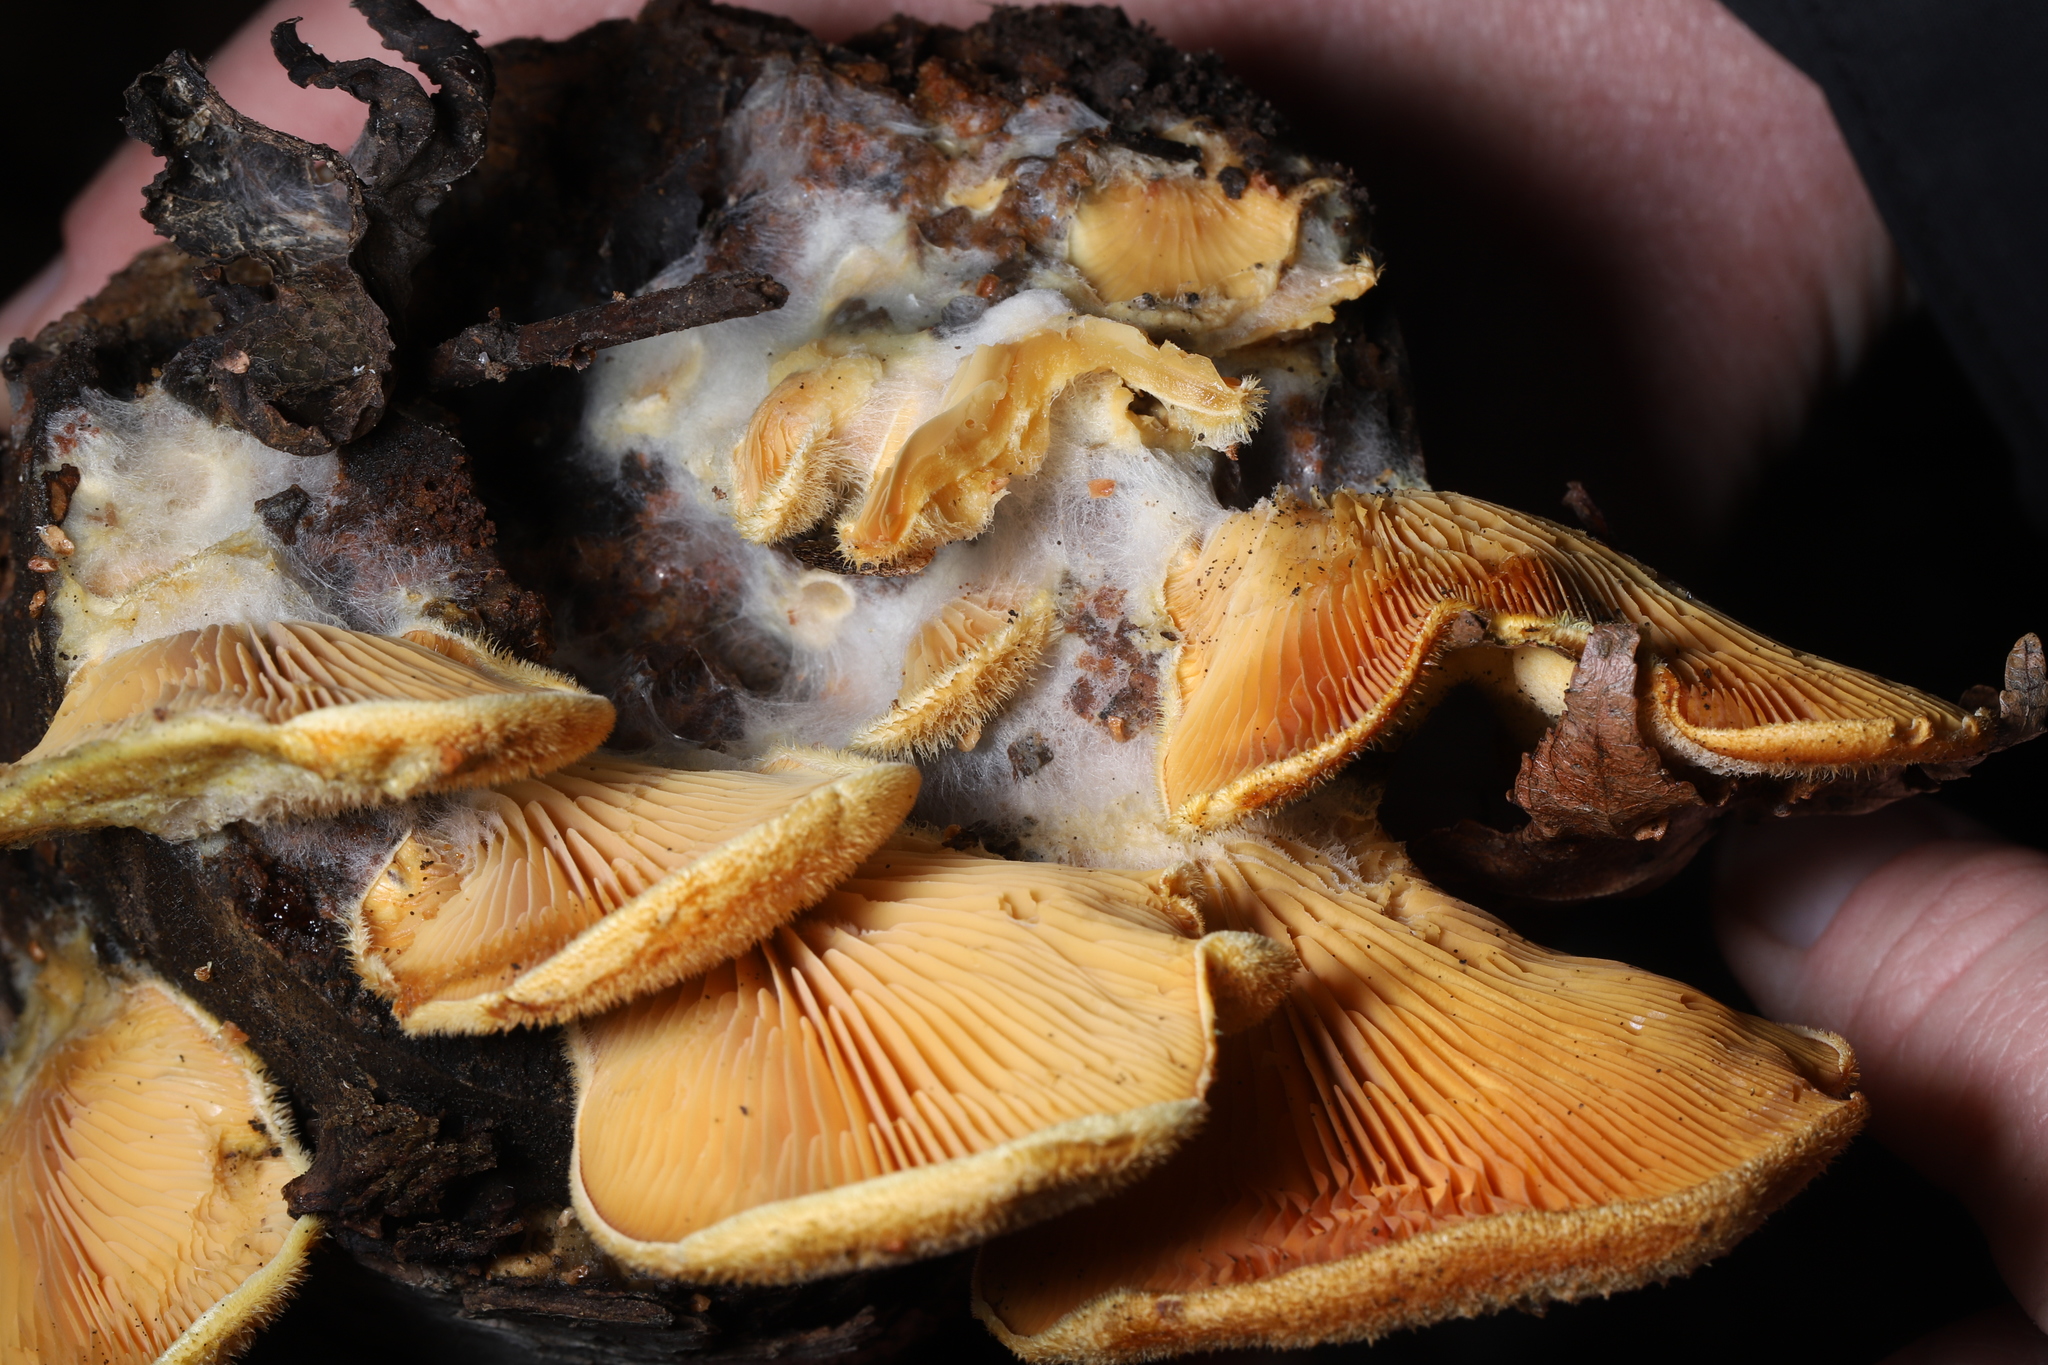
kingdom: Fungi
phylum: Basidiomycota
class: Agaricomycetes
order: Agaricales
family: Phyllotopsidaceae
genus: Phyllotopsis
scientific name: Phyllotopsis nidulans
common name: Orange mock oyster
